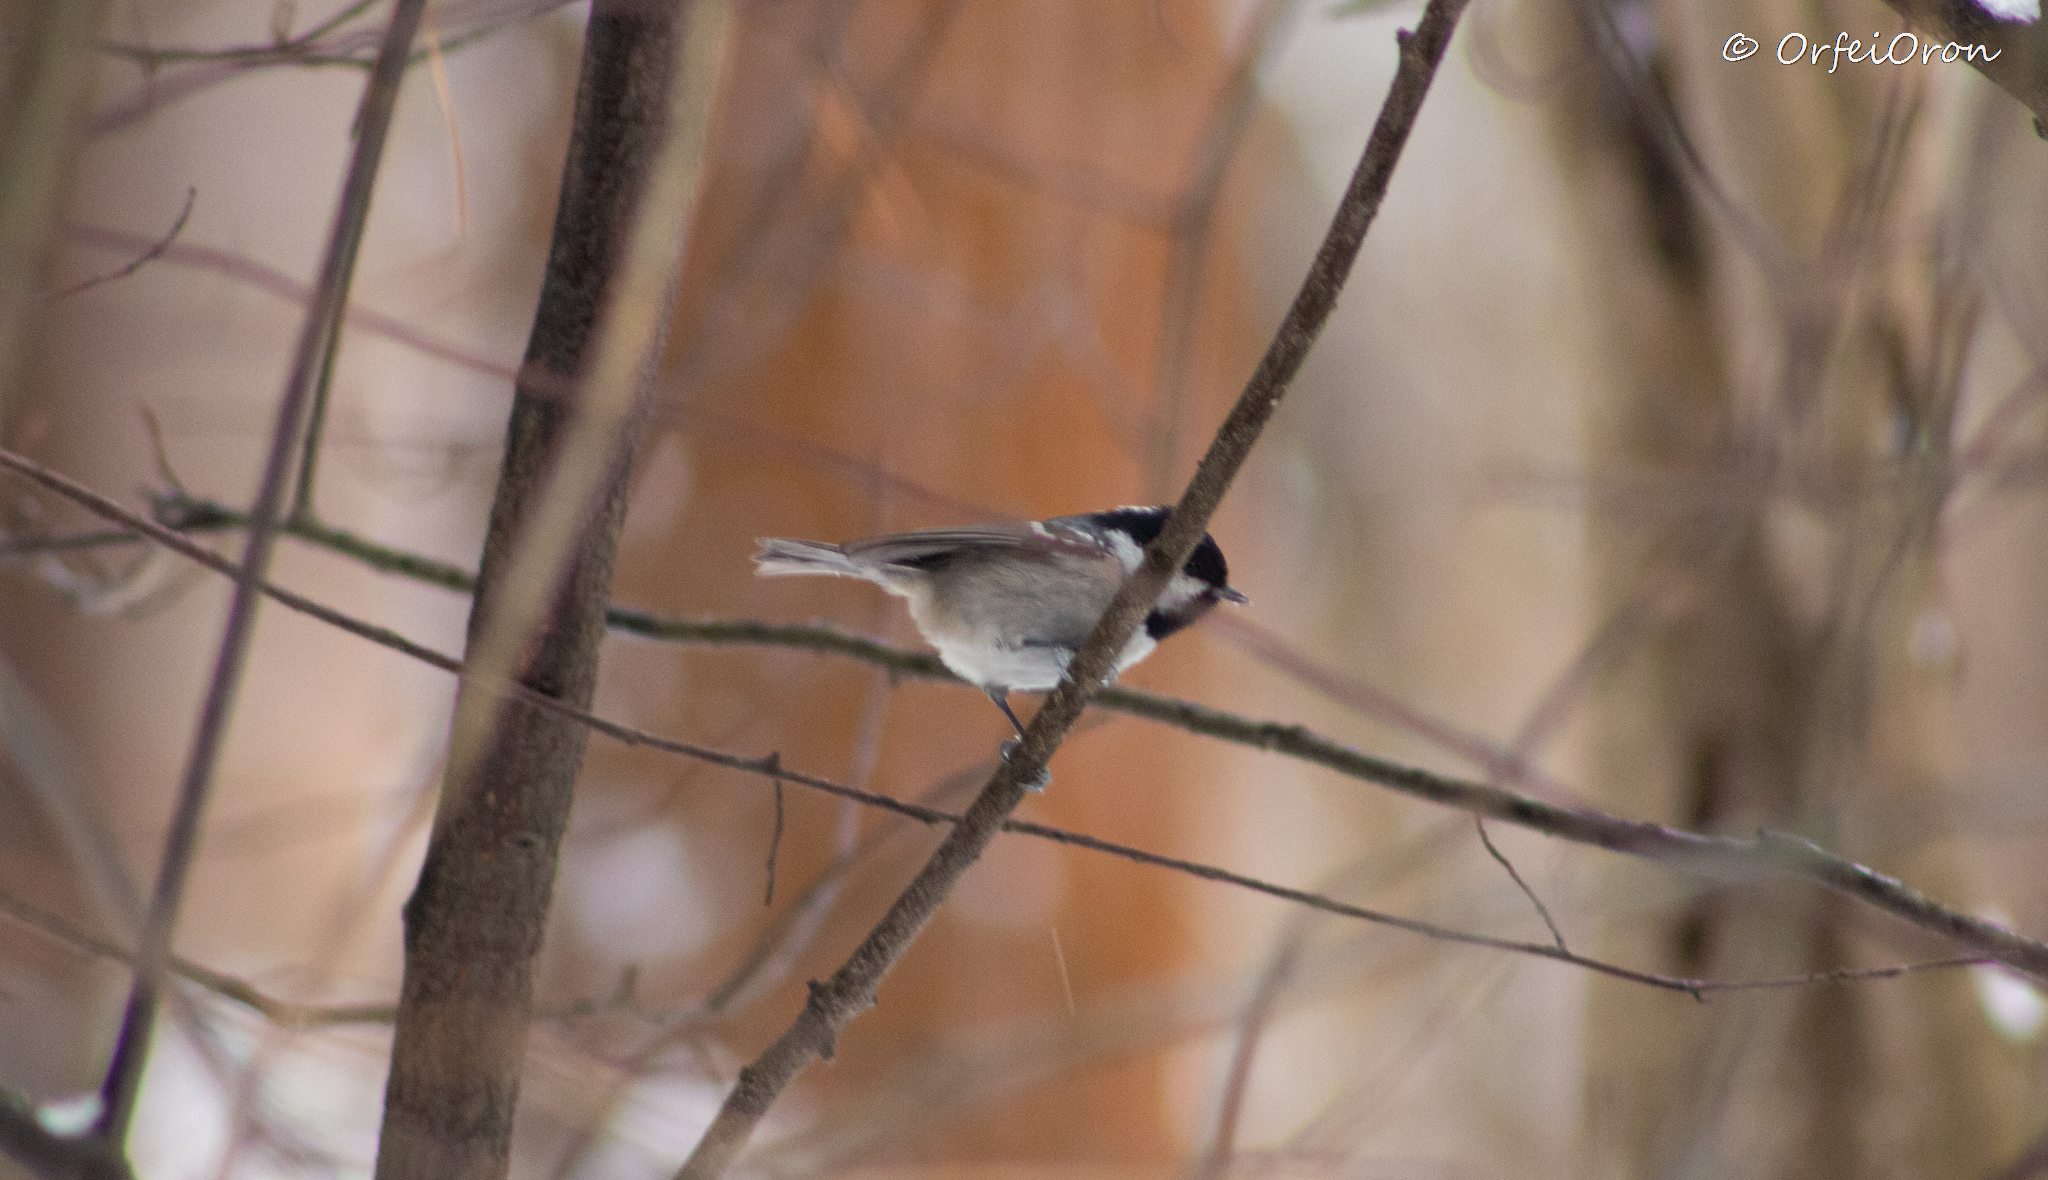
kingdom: Animalia
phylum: Chordata
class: Aves
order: Passeriformes
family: Paridae
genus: Periparus
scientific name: Periparus ater
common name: Coal tit
